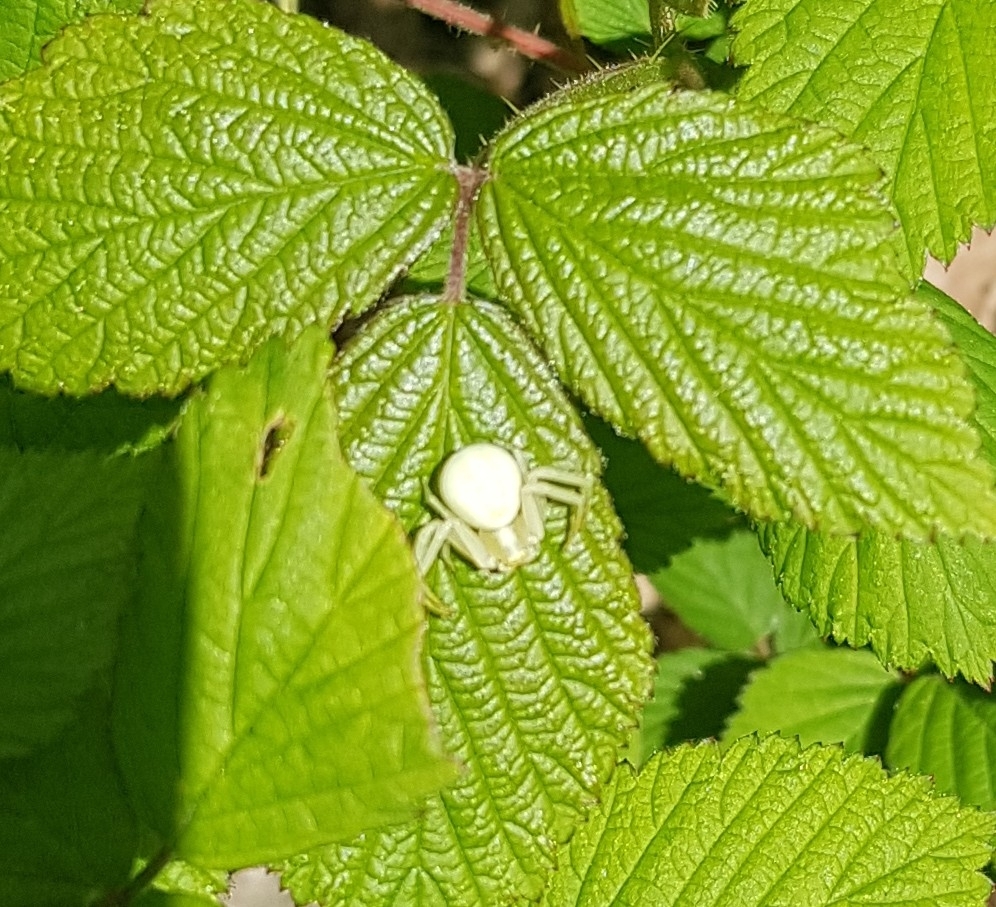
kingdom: Animalia
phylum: Arthropoda
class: Arachnida
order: Araneae
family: Thomisidae
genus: Misumena
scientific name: Misumena vatia
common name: Goldenrod crab spider
